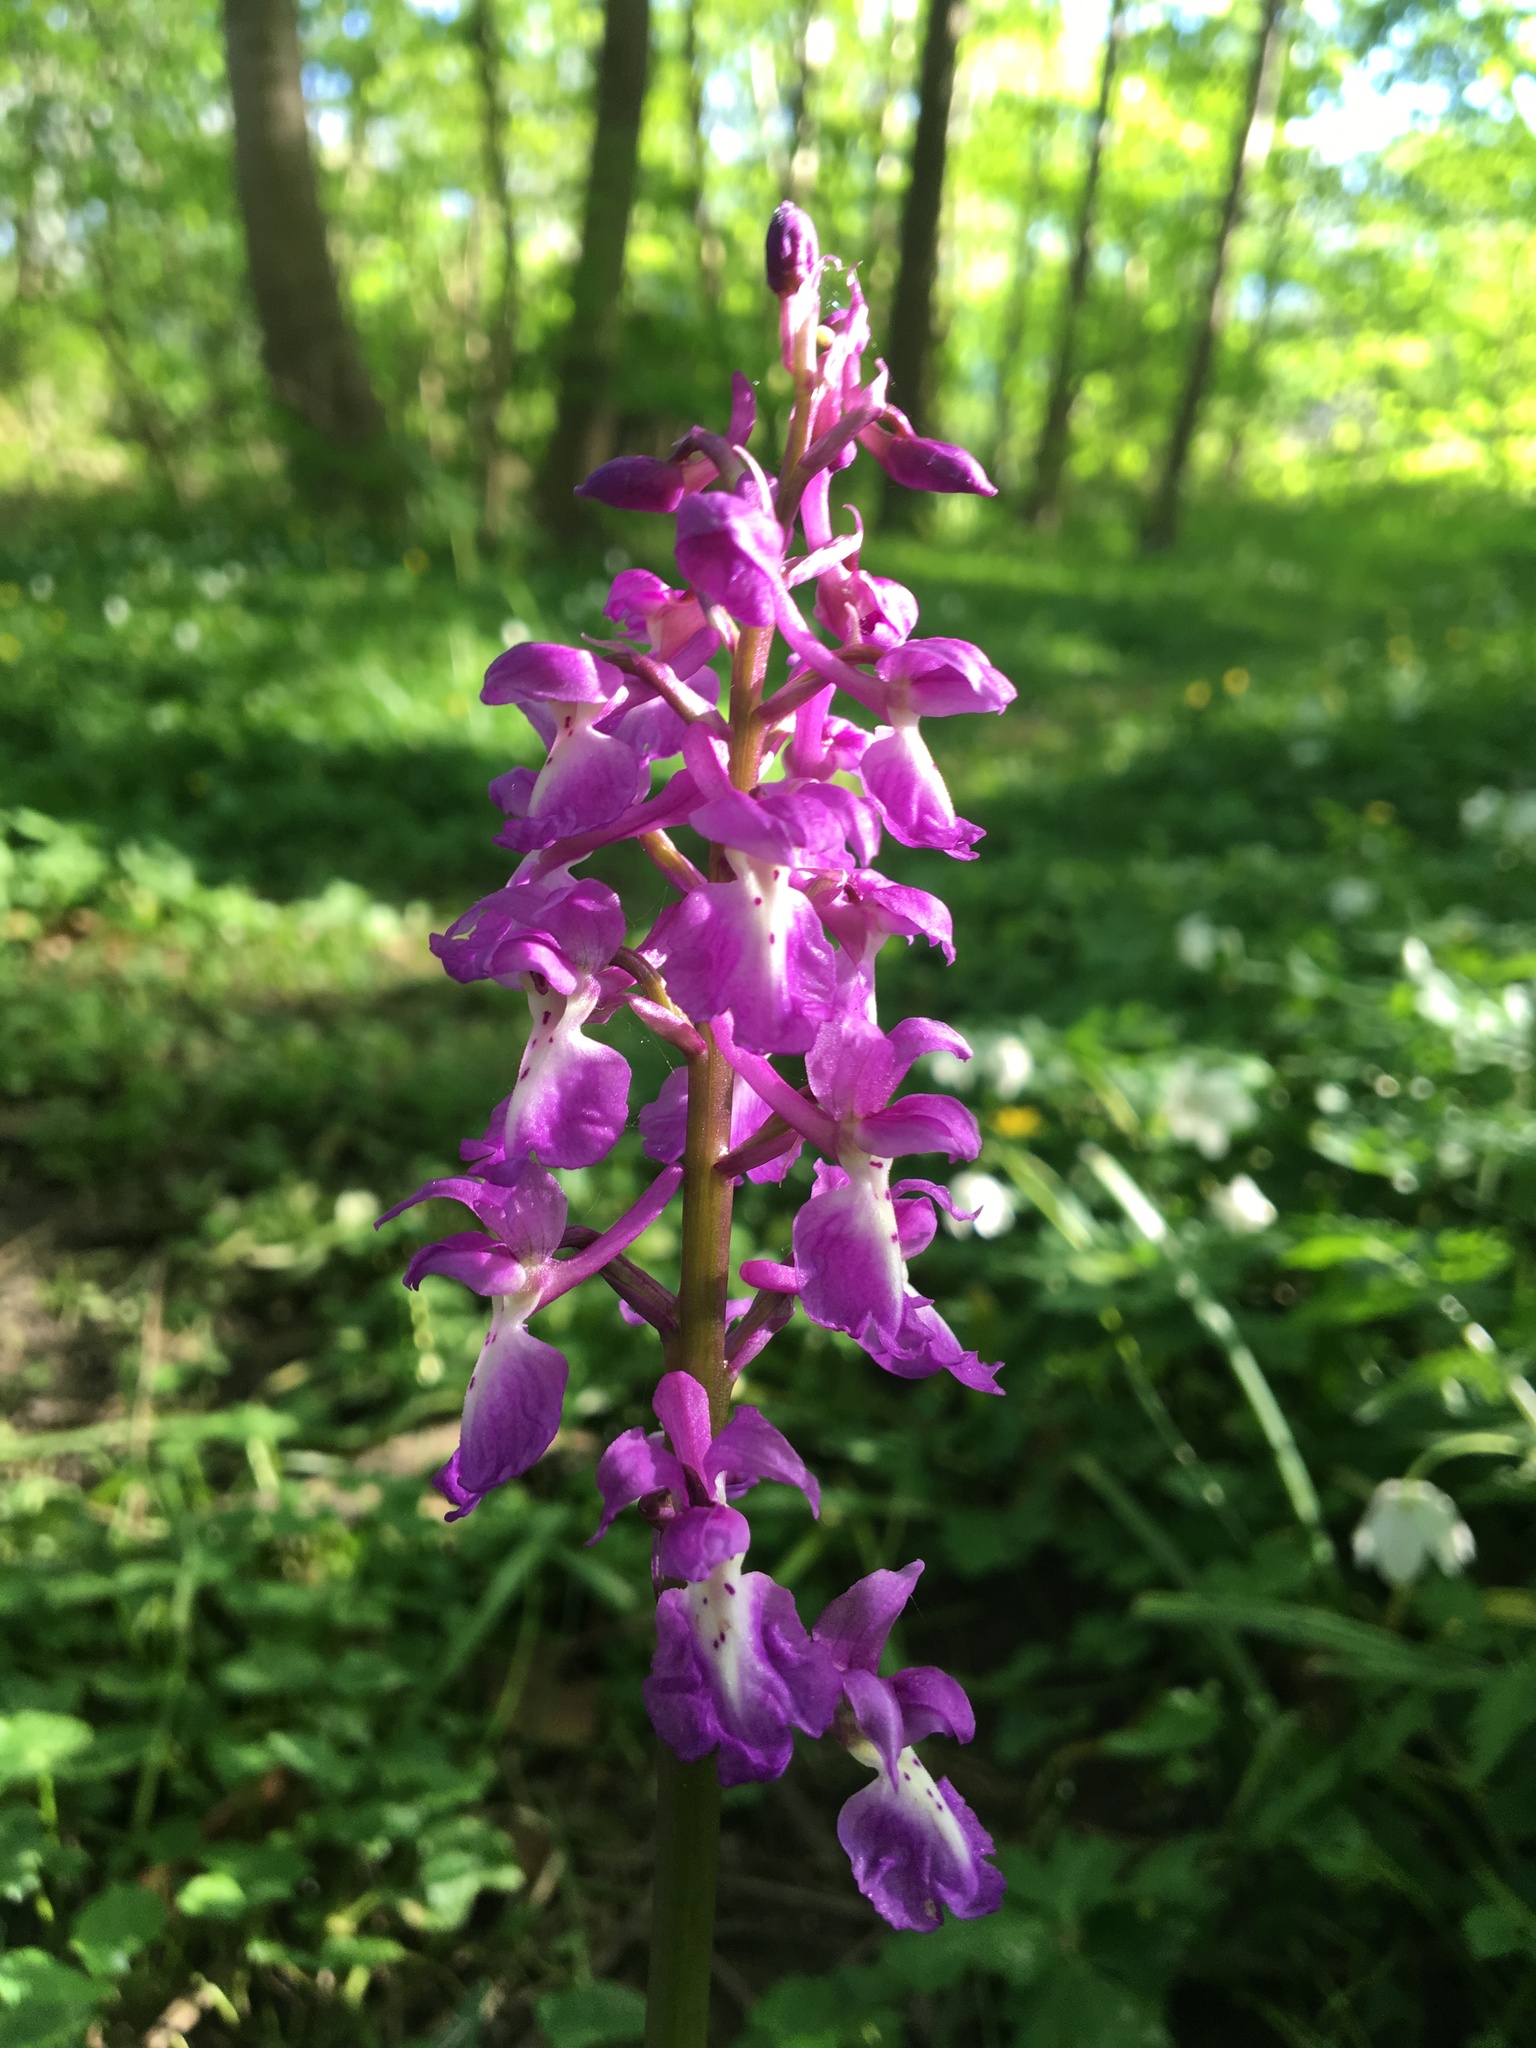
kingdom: Plantae
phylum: Tracheophyta
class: Liliopsida
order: Asparagales
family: Orchidaceae
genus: Orchis
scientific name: Orchis mascula
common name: Early-purple orchid
